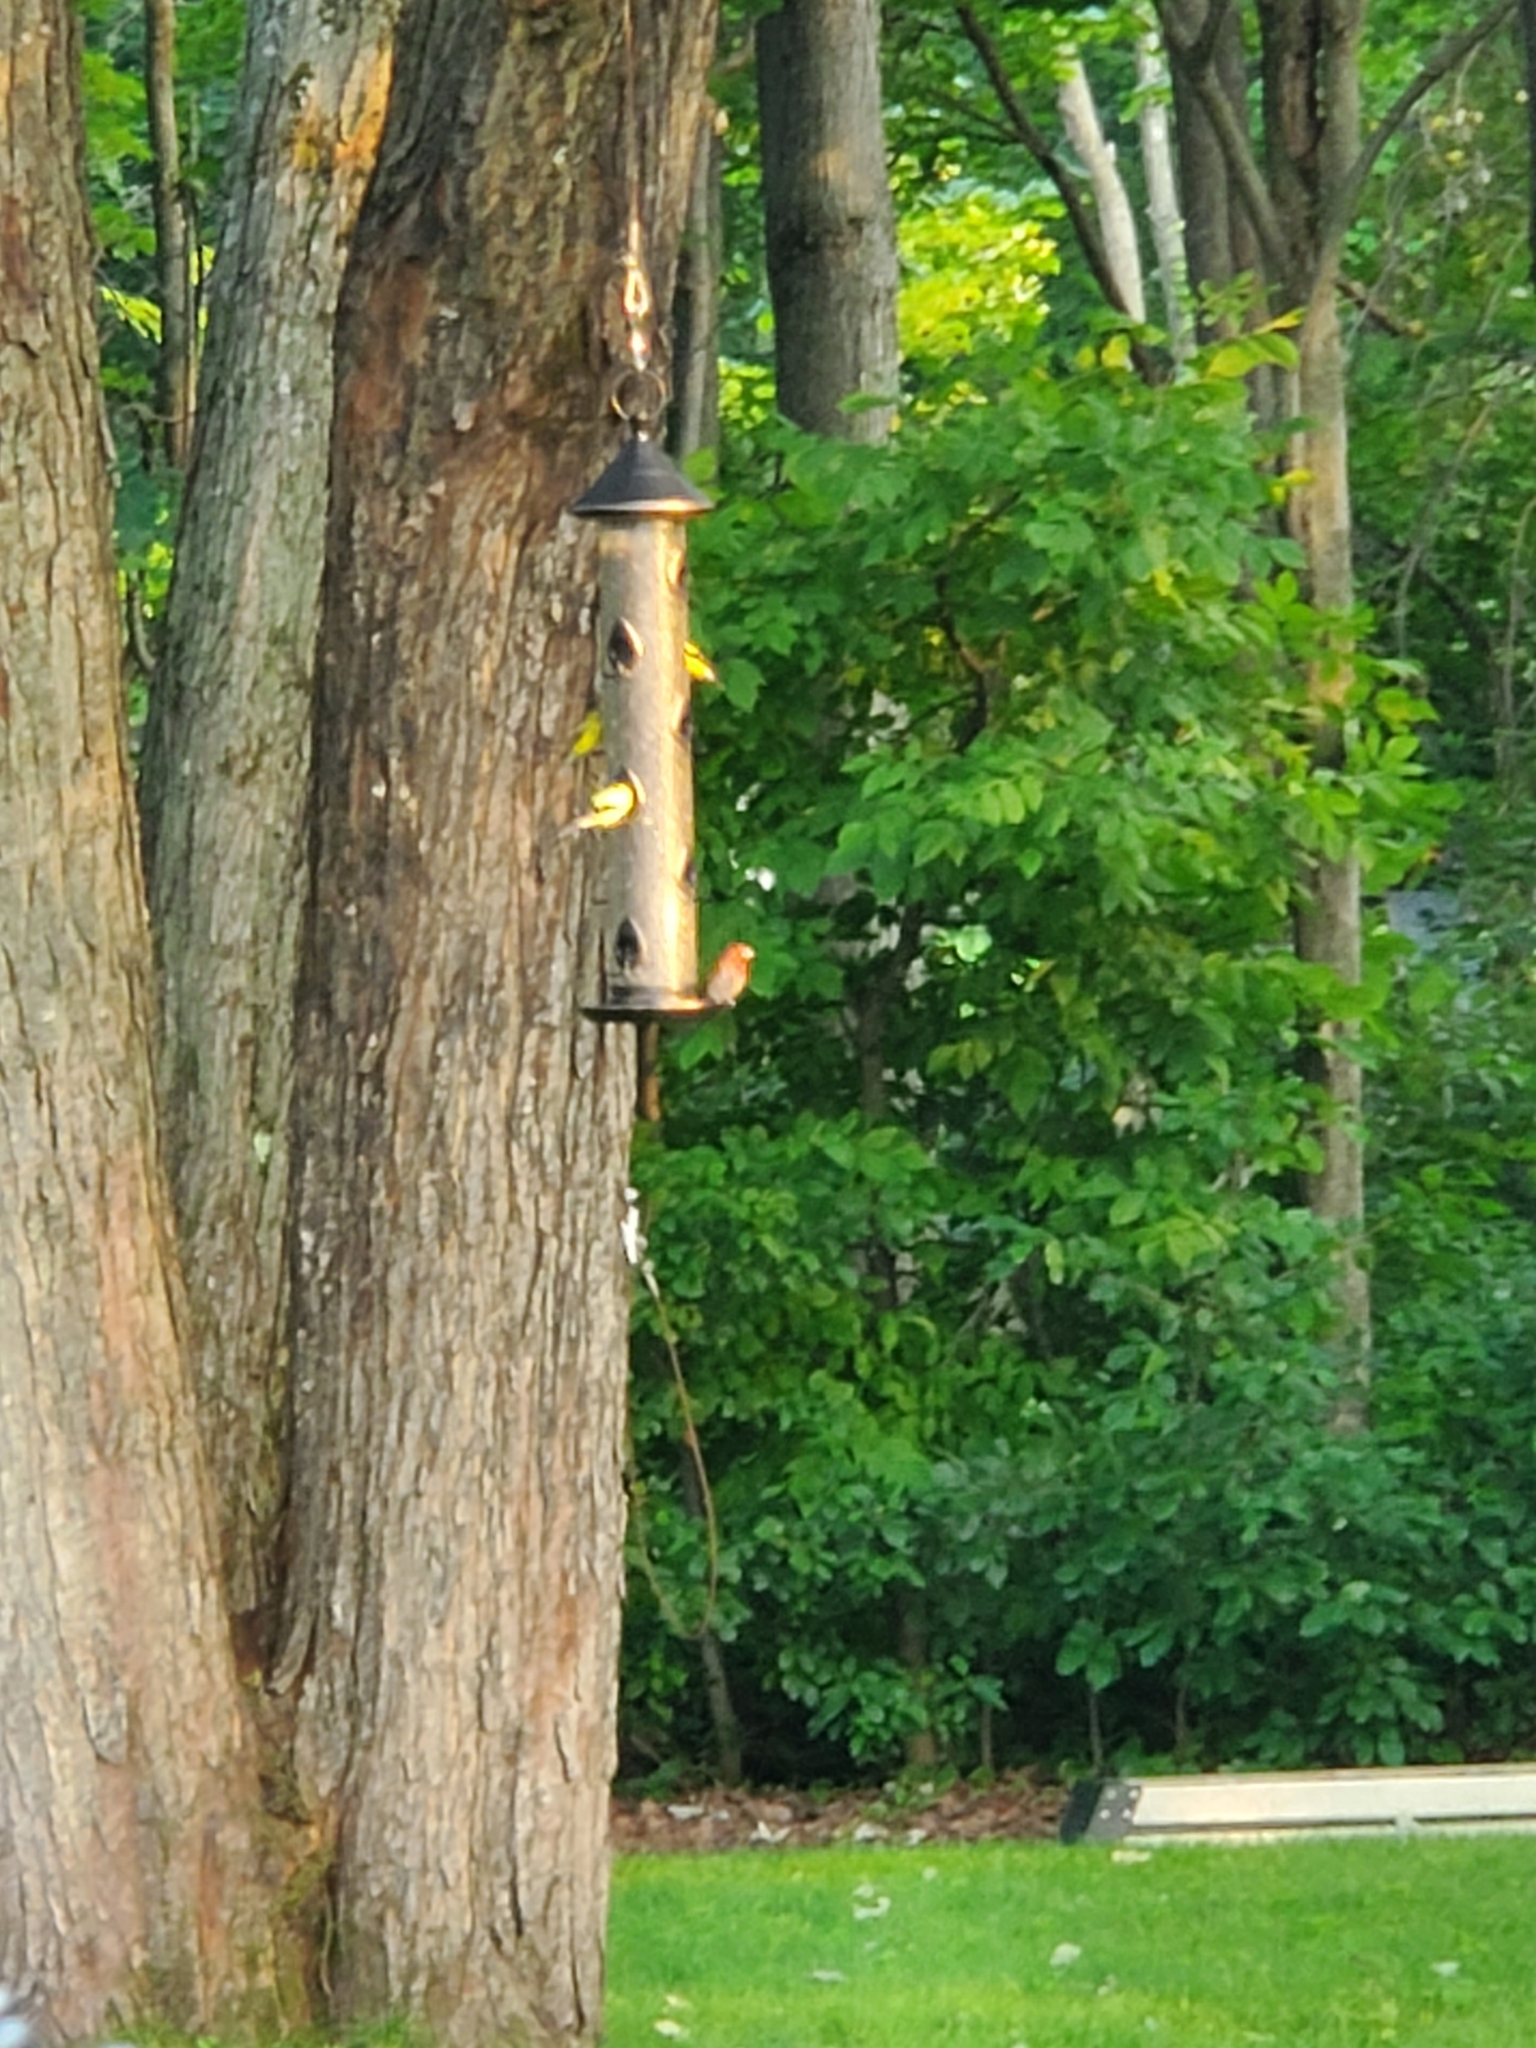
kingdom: Animalia
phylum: Chordata
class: Aves
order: Passeriformes
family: Fringillidae
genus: Haemorhous
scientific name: Haemorhous mexicanus
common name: House finch
